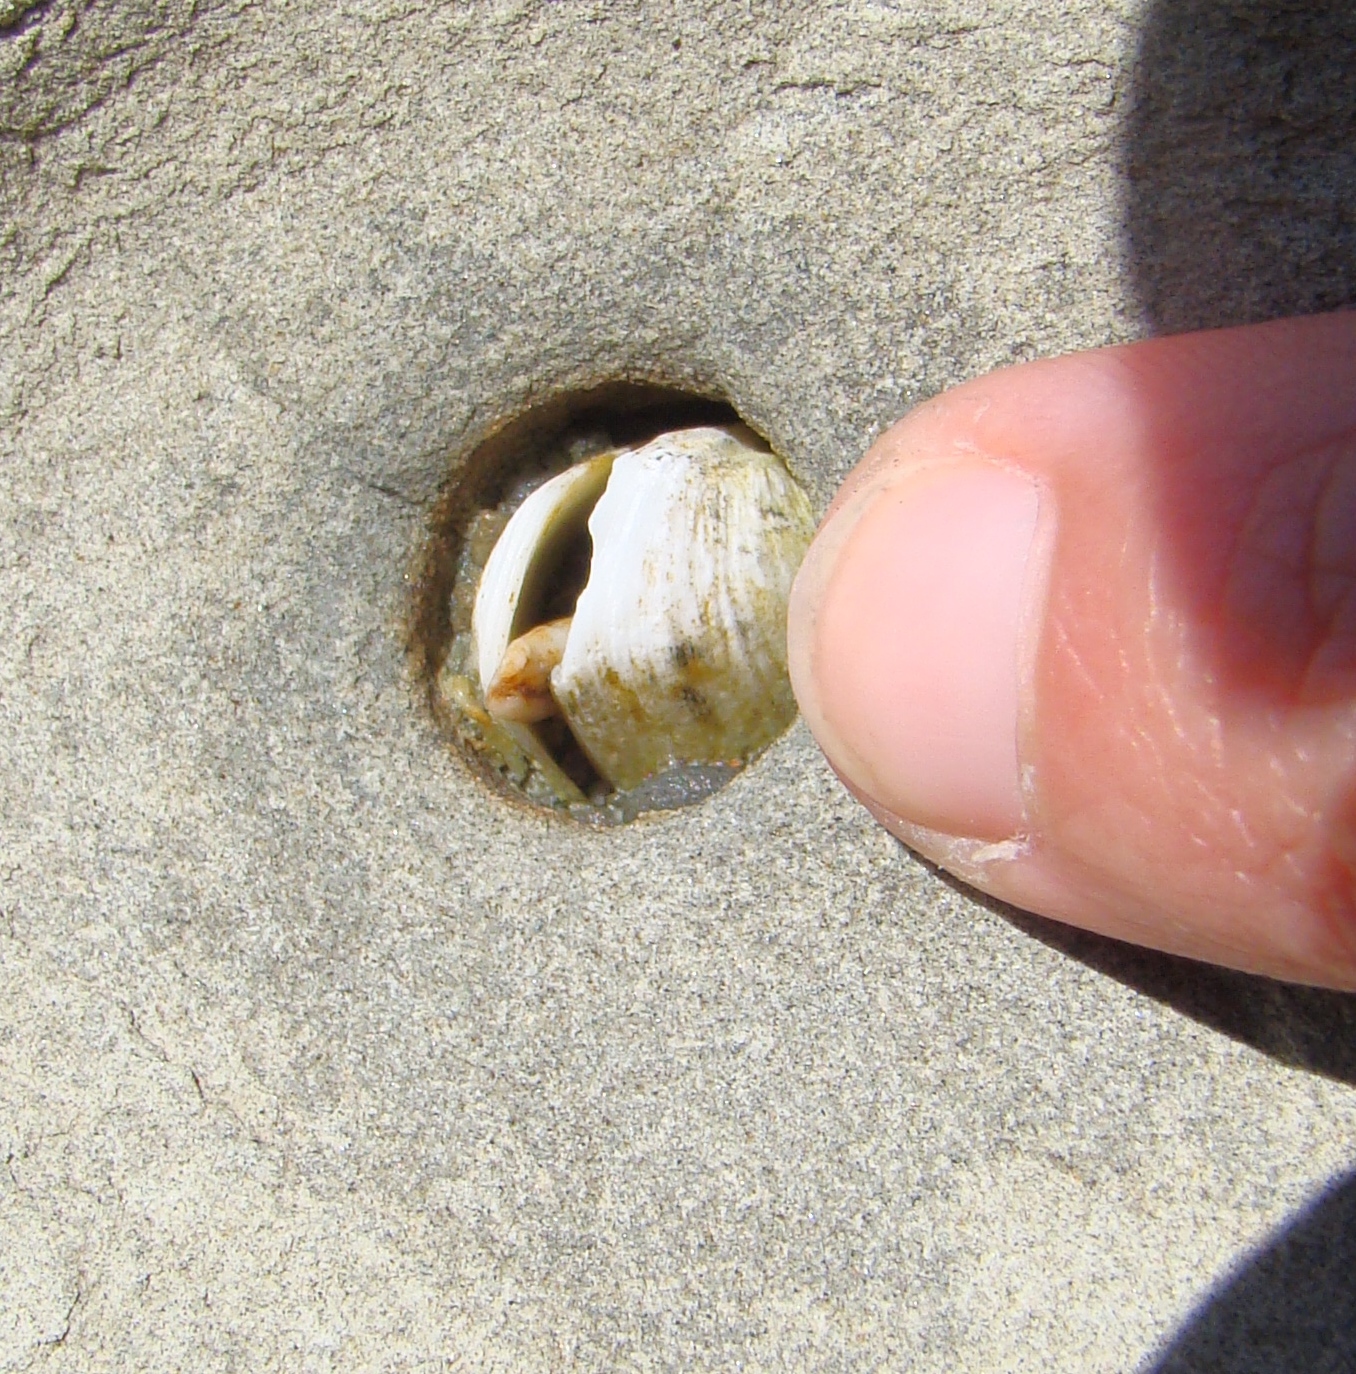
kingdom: Animalia
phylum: Mollusca
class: Bivalvia
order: Venerida
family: Veneridae
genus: Irus
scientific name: Irus reflexus
